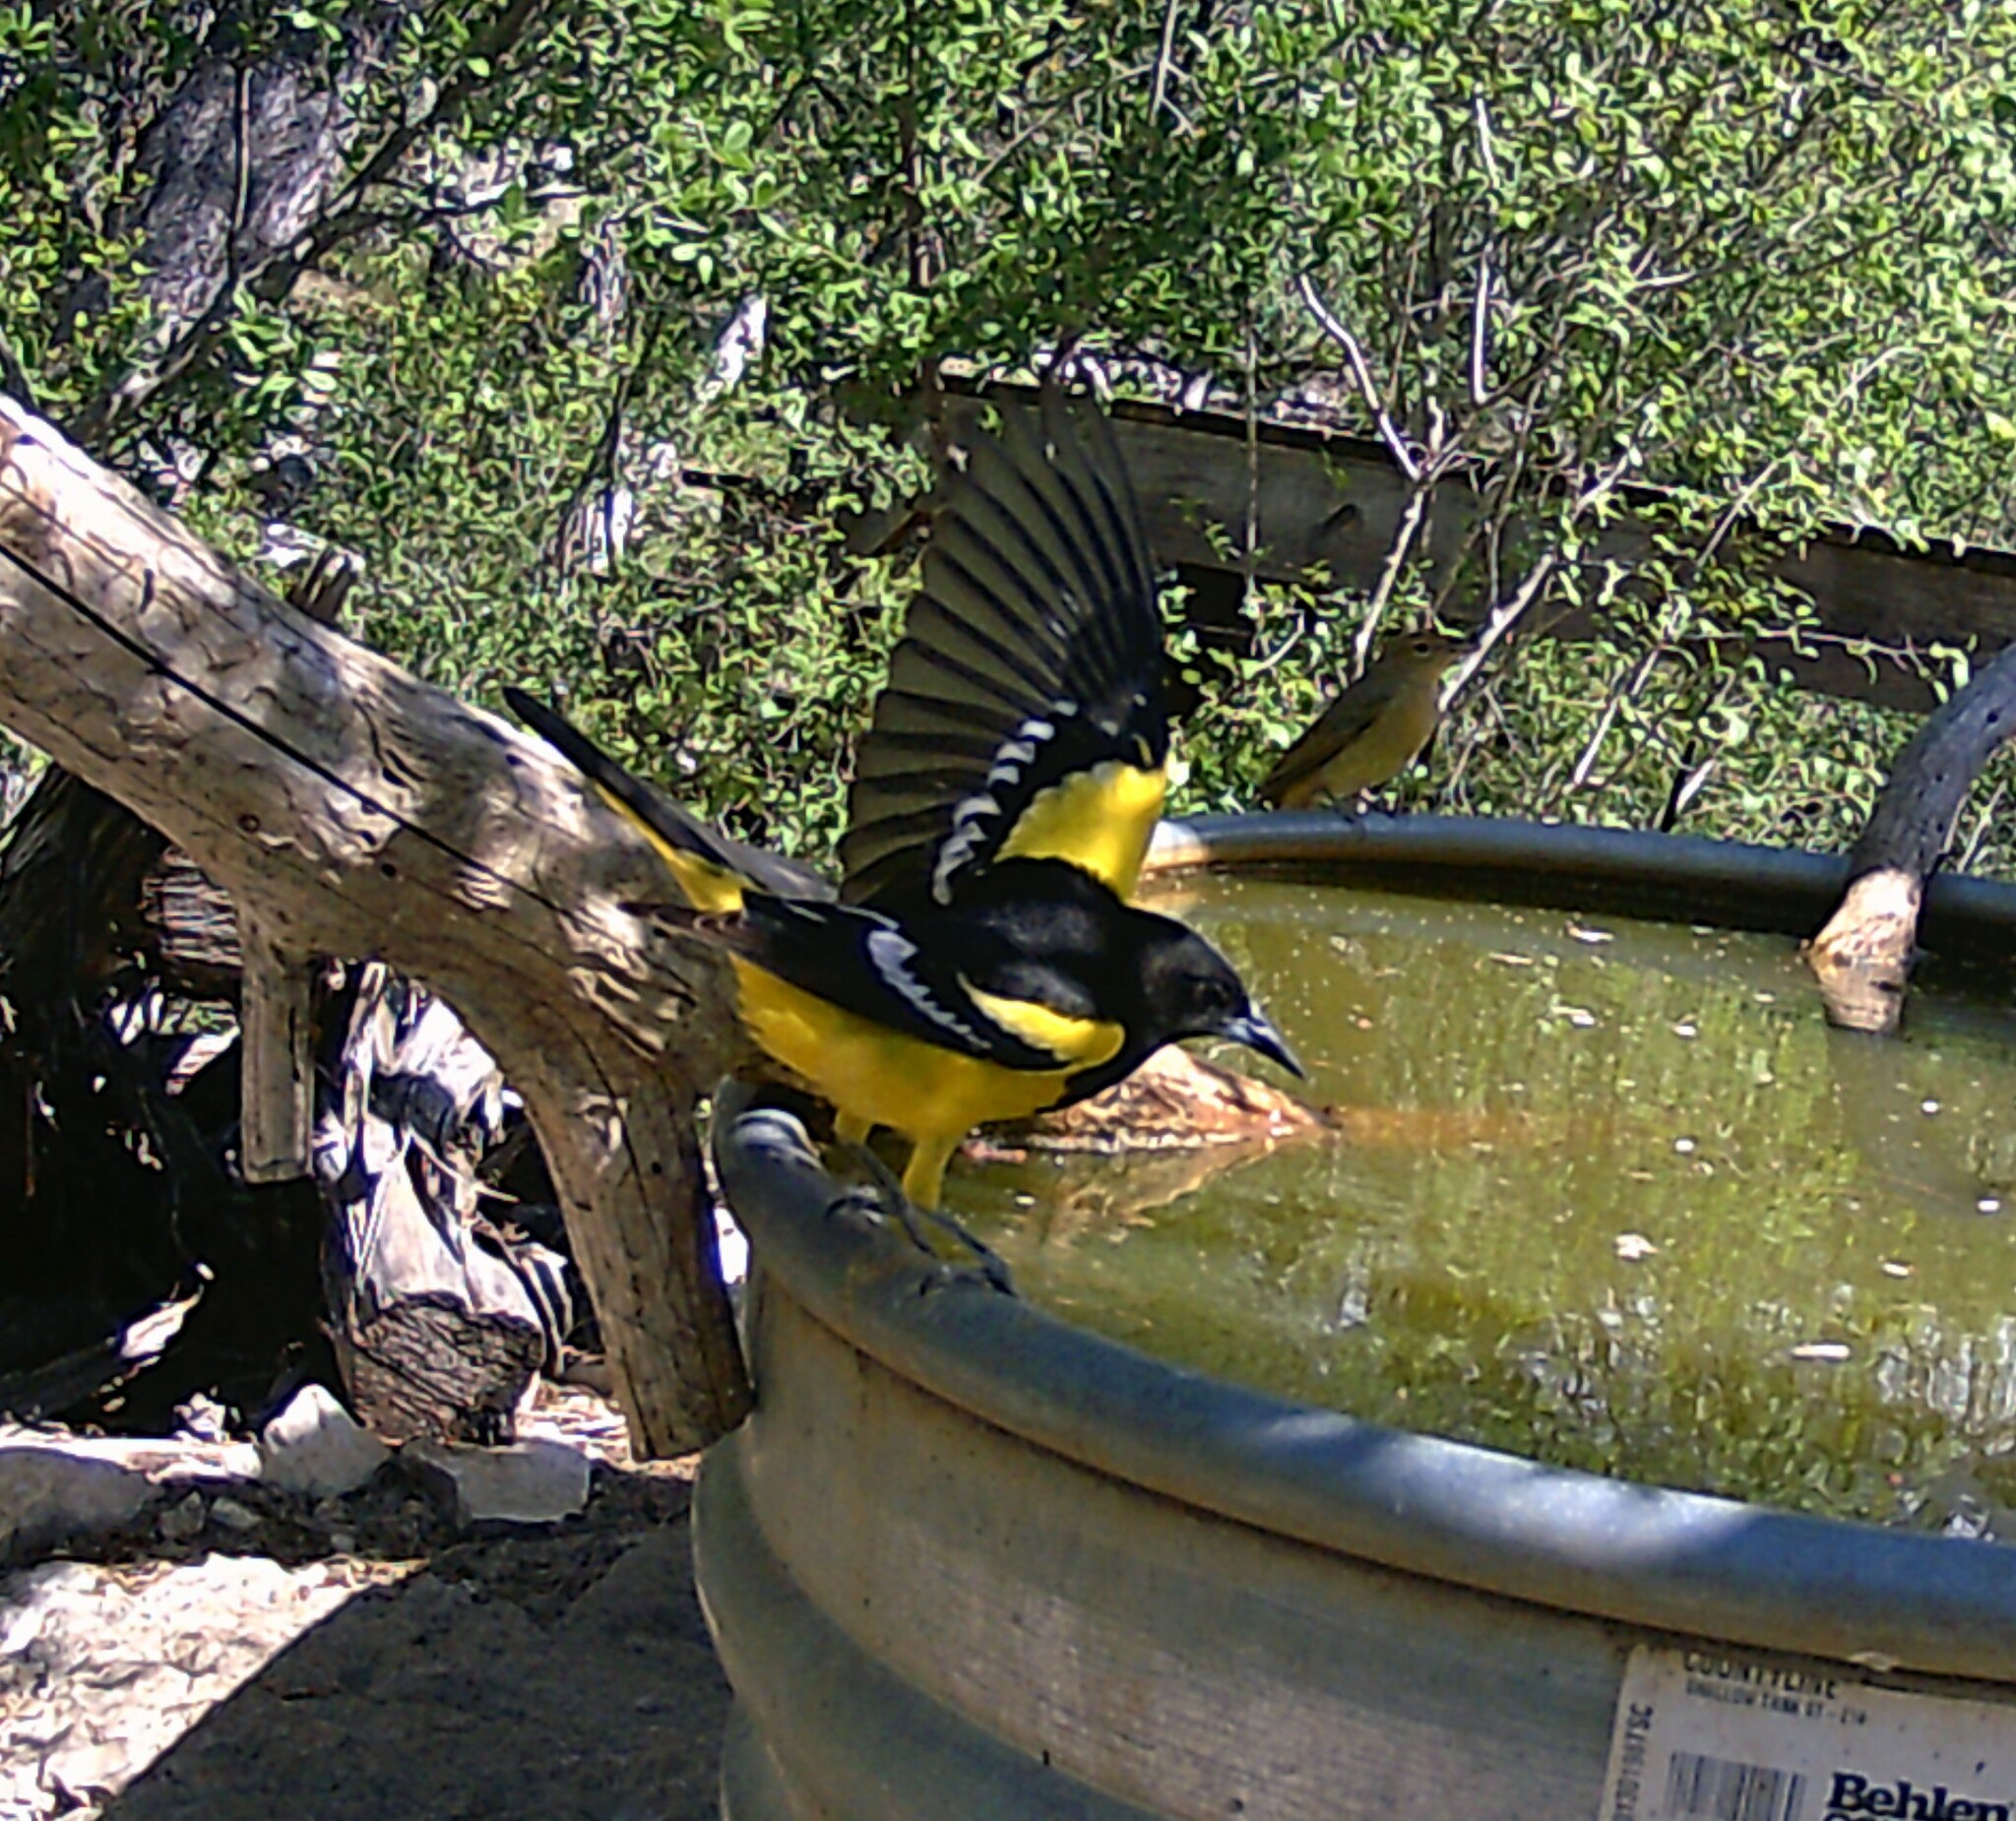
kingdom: Animalia
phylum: Chordata
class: Aves
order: Passeriformes
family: Icteridae
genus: Icterus
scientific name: Icterus parisorum
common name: Scott's oriole
